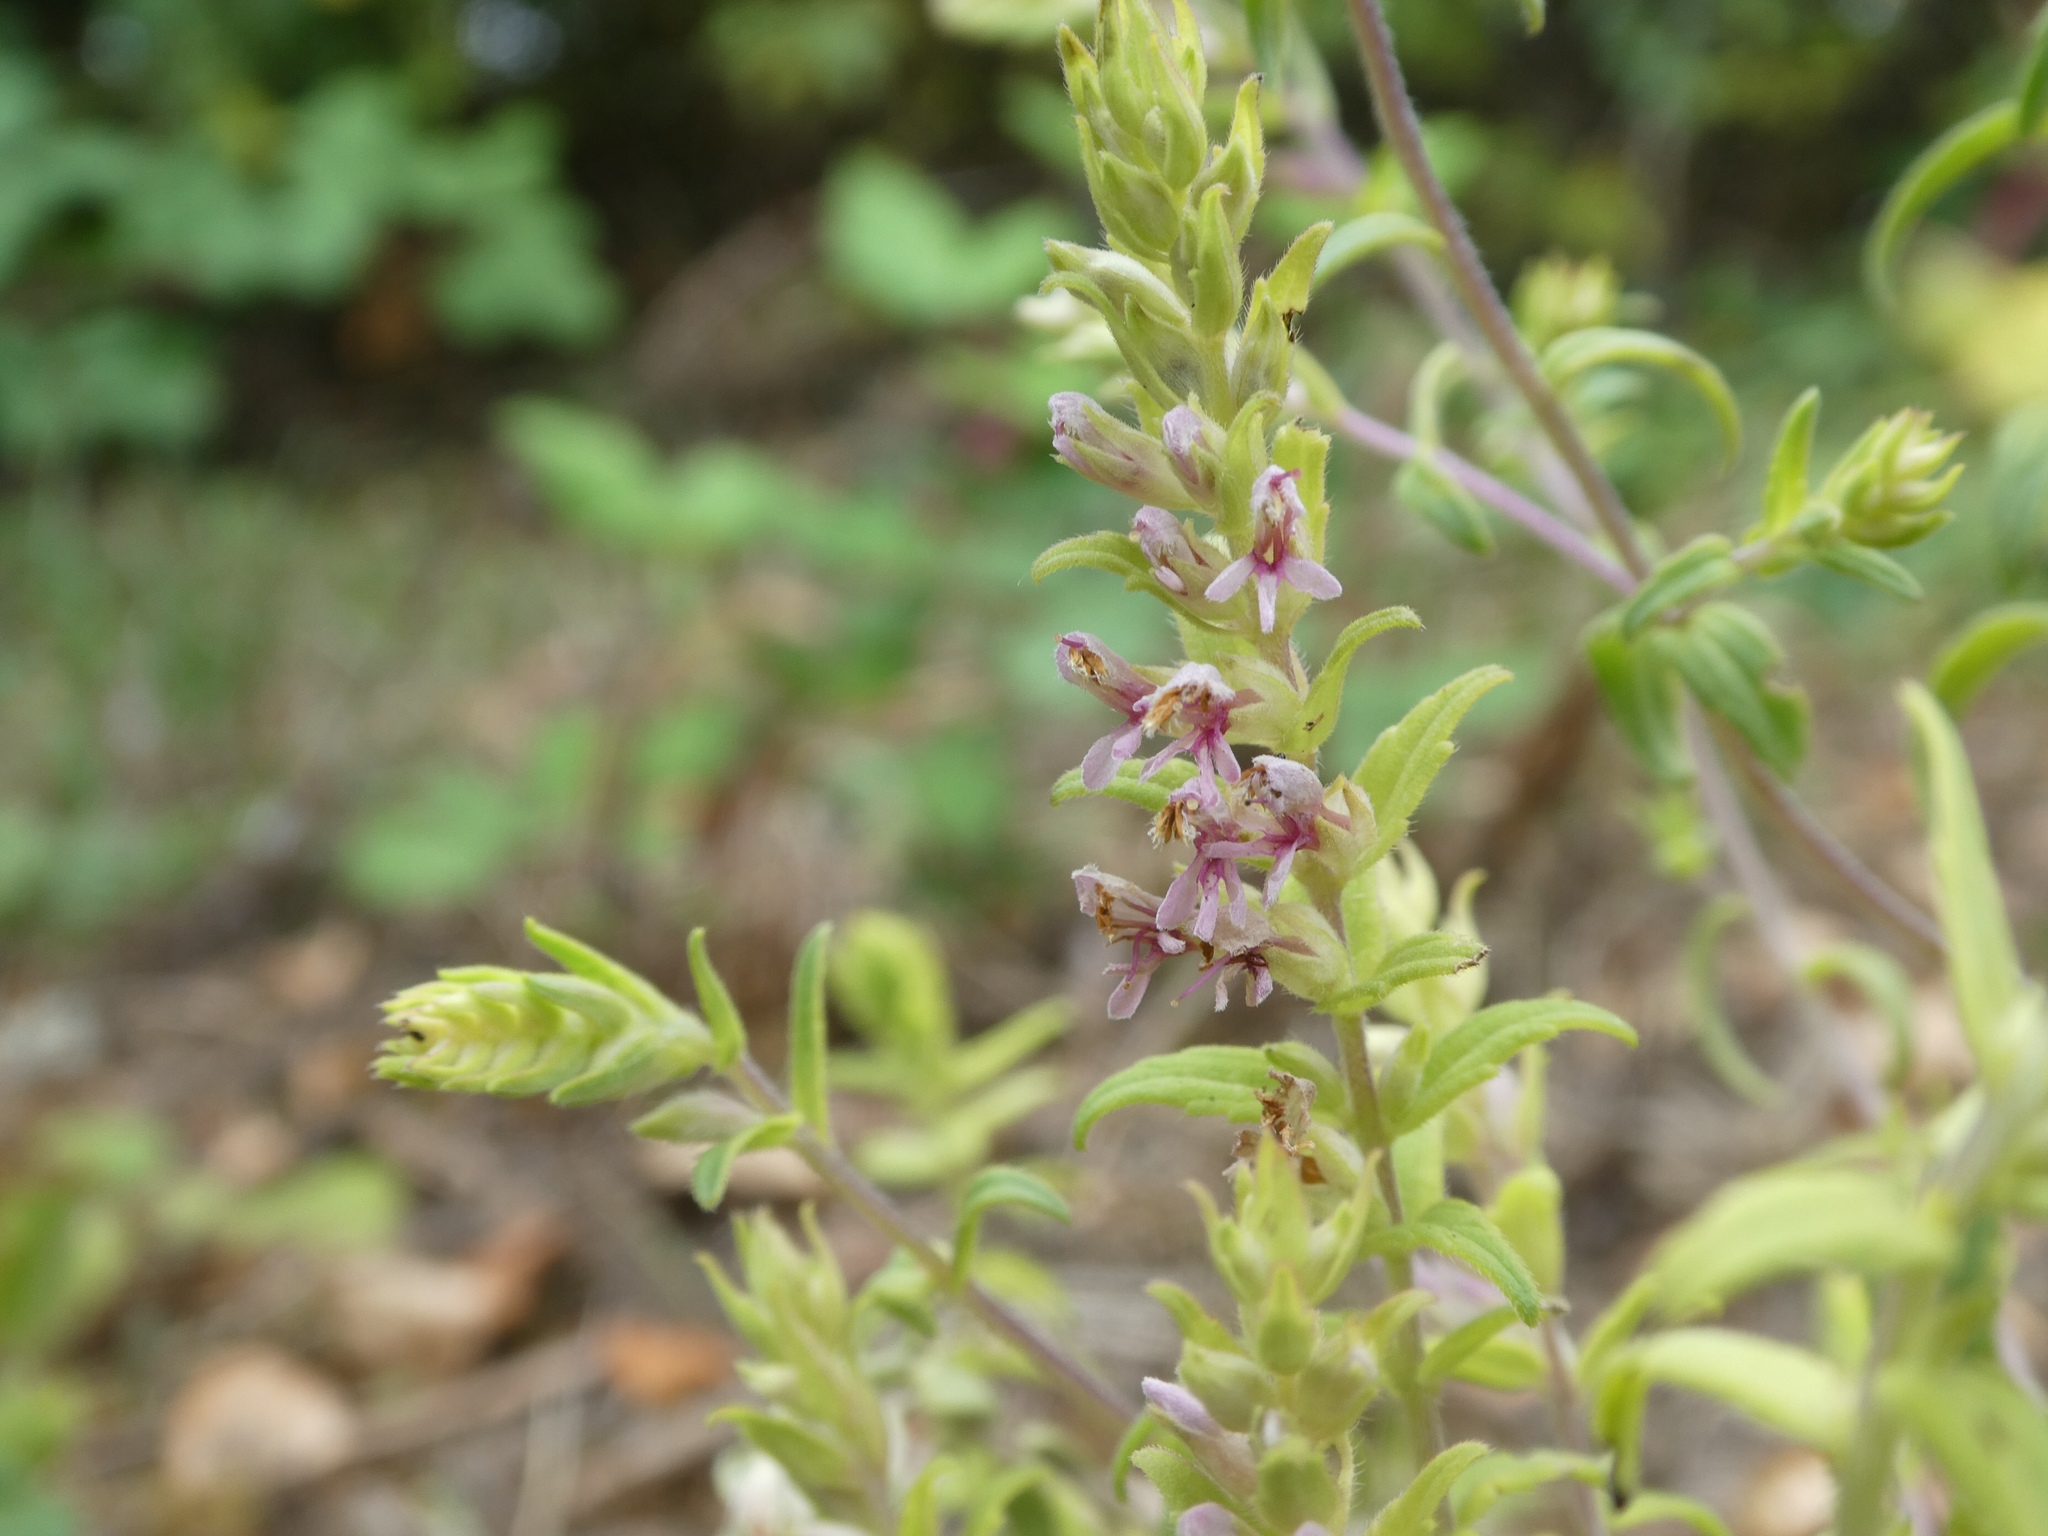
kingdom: Plantae
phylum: Tracheophyta
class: Magnoliopsida
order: Lamiales
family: Orobanchaceae
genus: Odontites
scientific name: Odontites vernus
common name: Red bartsia
